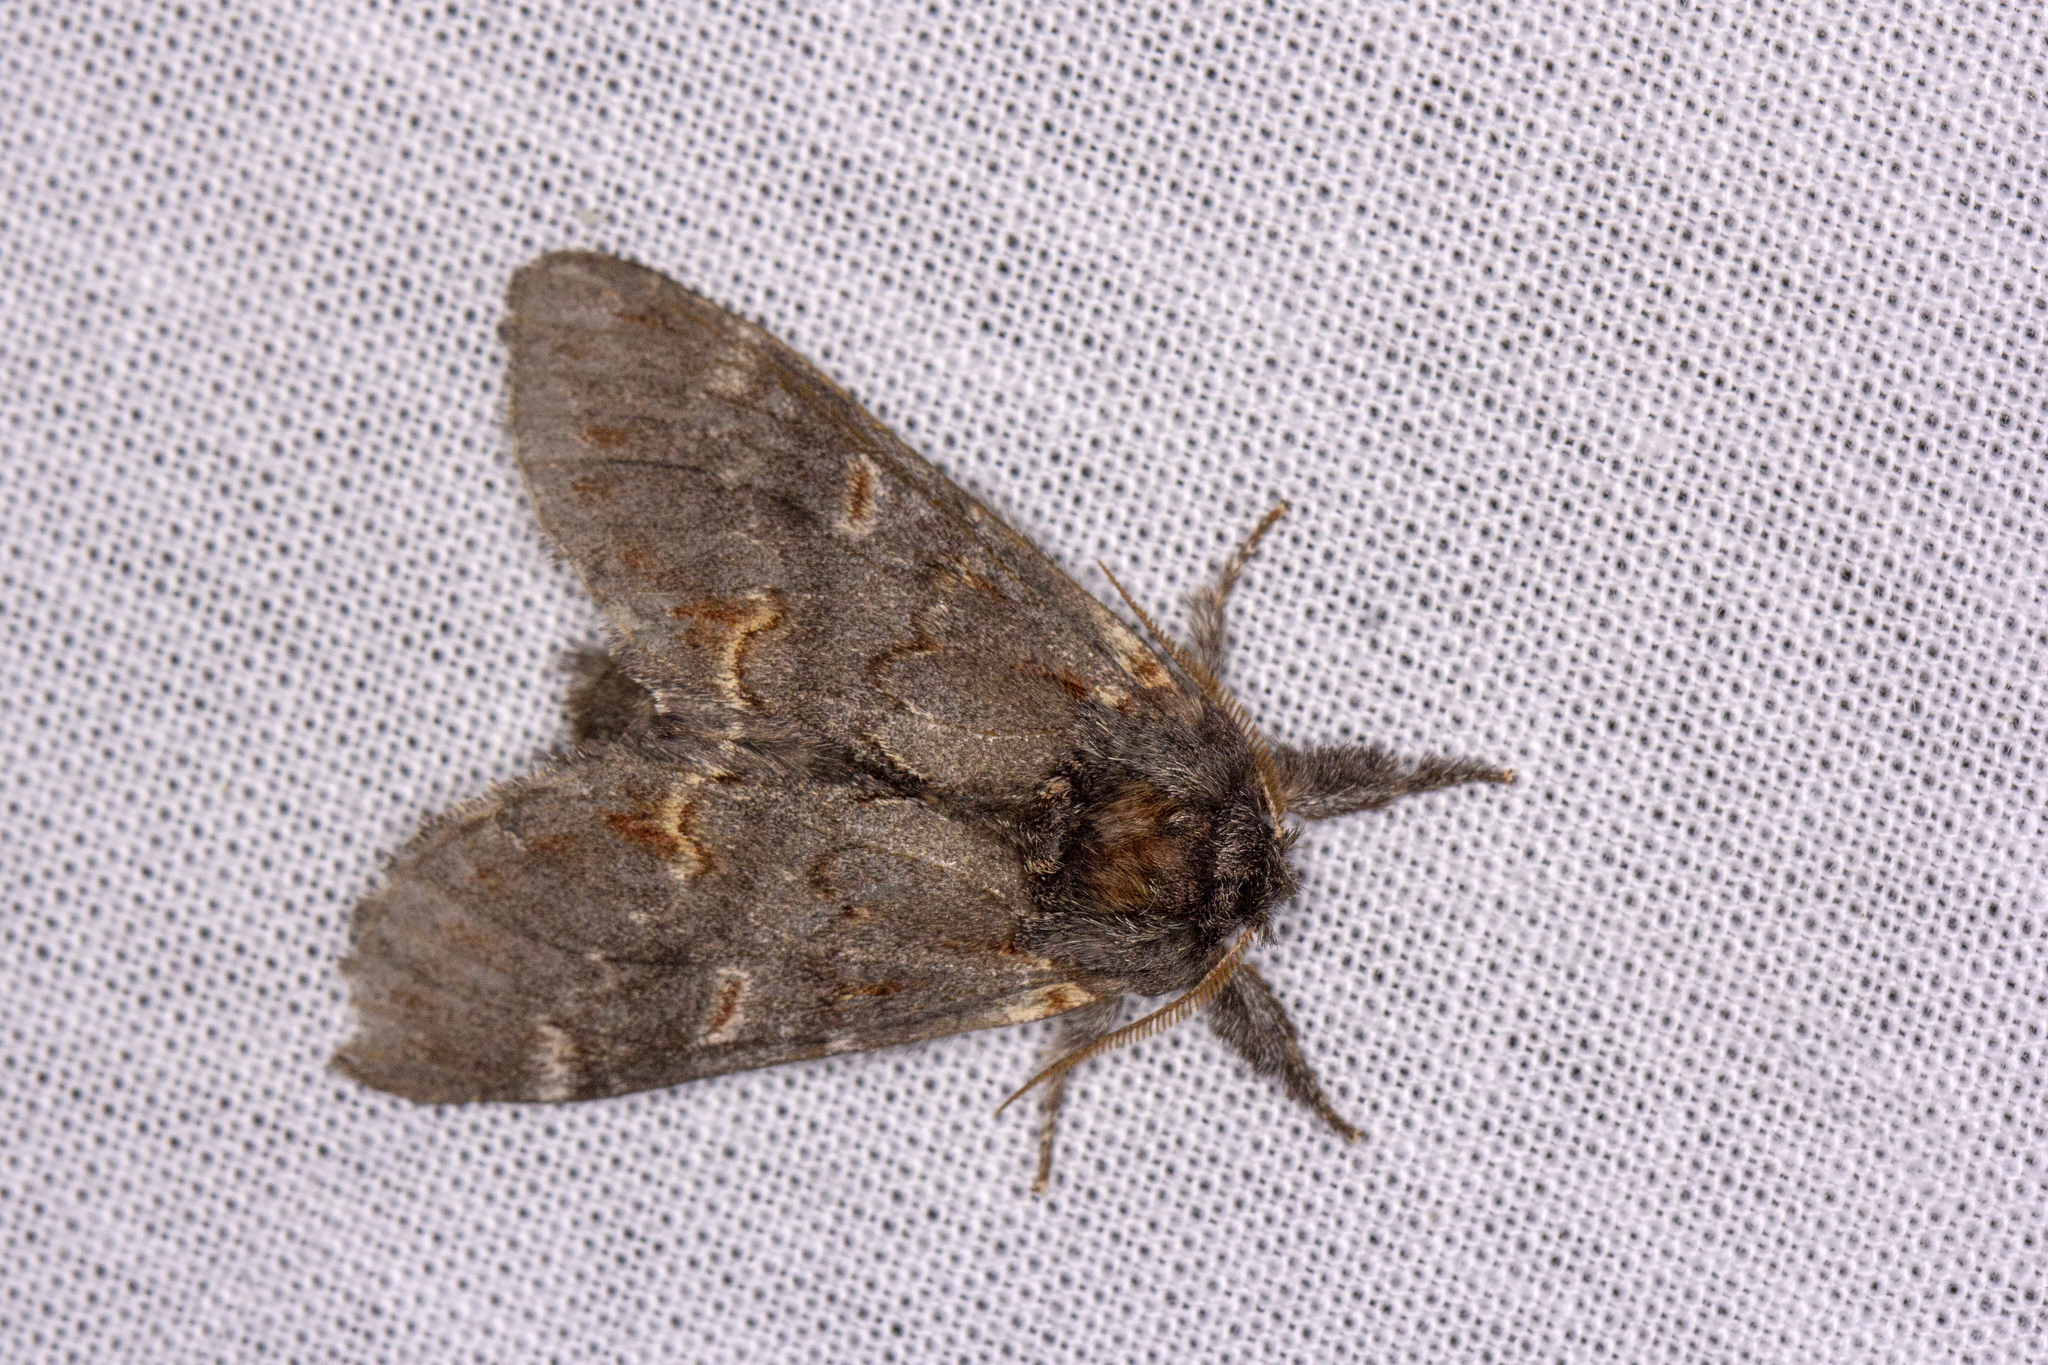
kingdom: Animalia
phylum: Arthropoda
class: Insecta
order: Lepidoptera
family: Notodontidae
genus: Notodonta
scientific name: Notodonta dromedarius
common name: Iron prominent
